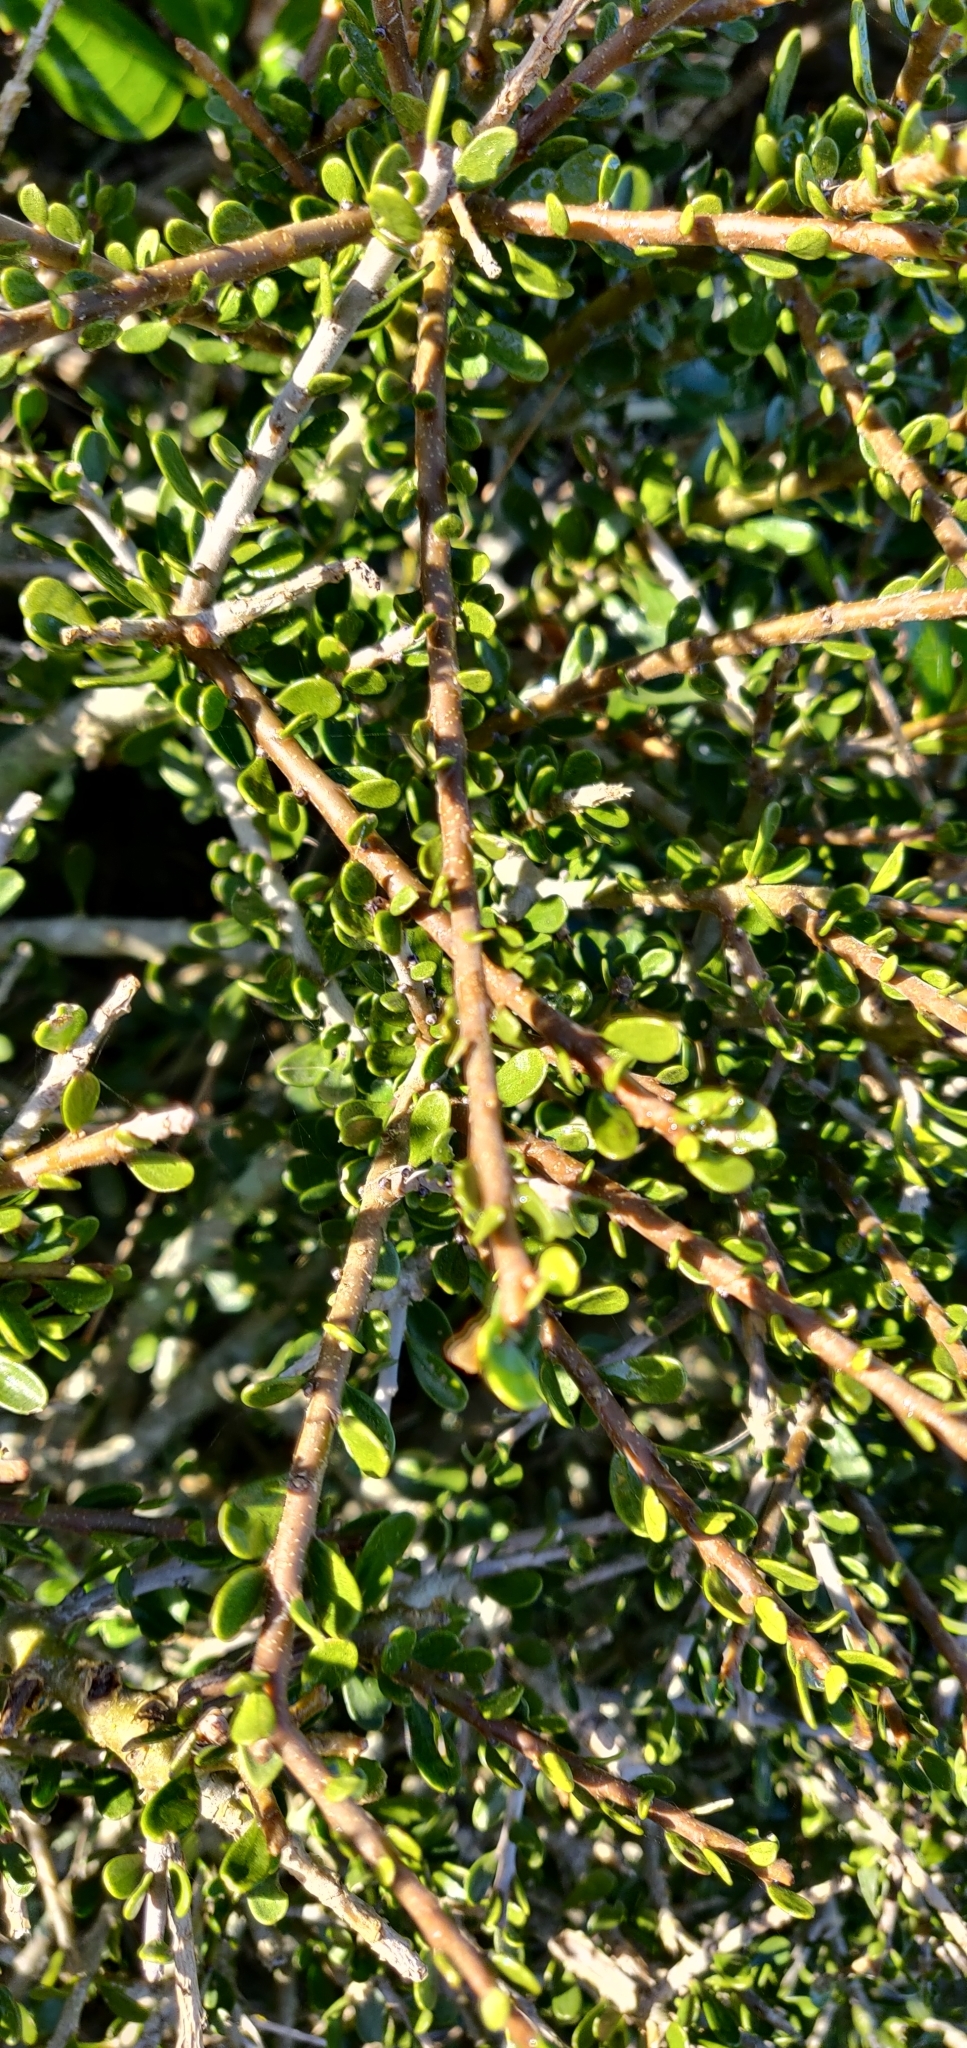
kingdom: Plantae
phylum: Tracheophyta
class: Magnoliopsida
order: Malpighiales
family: Violaceae
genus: Melicytus
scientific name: Melicytus crassifolius
